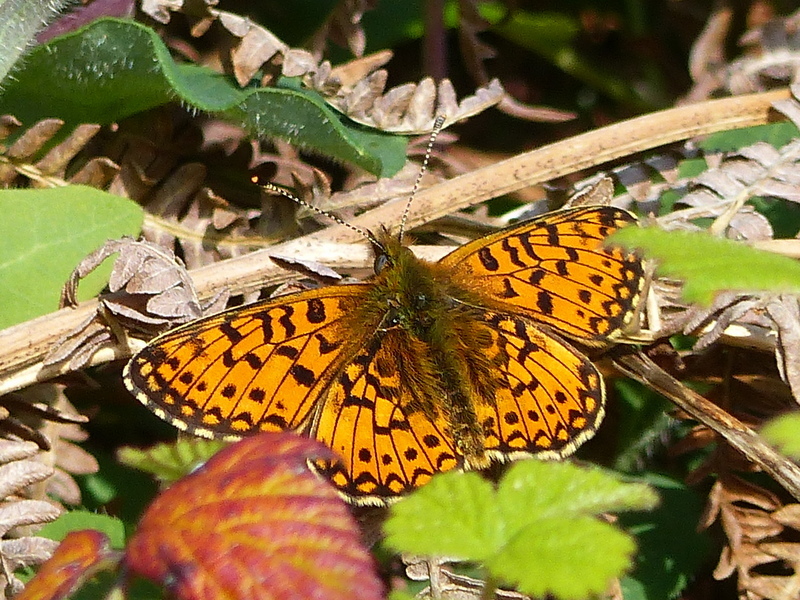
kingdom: Animalia
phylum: Arthropoda
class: Insecta
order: Lepidoptera
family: Nymphalidae
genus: Boloria
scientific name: Boloria selene
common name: Small pearl-bordered fritillary
